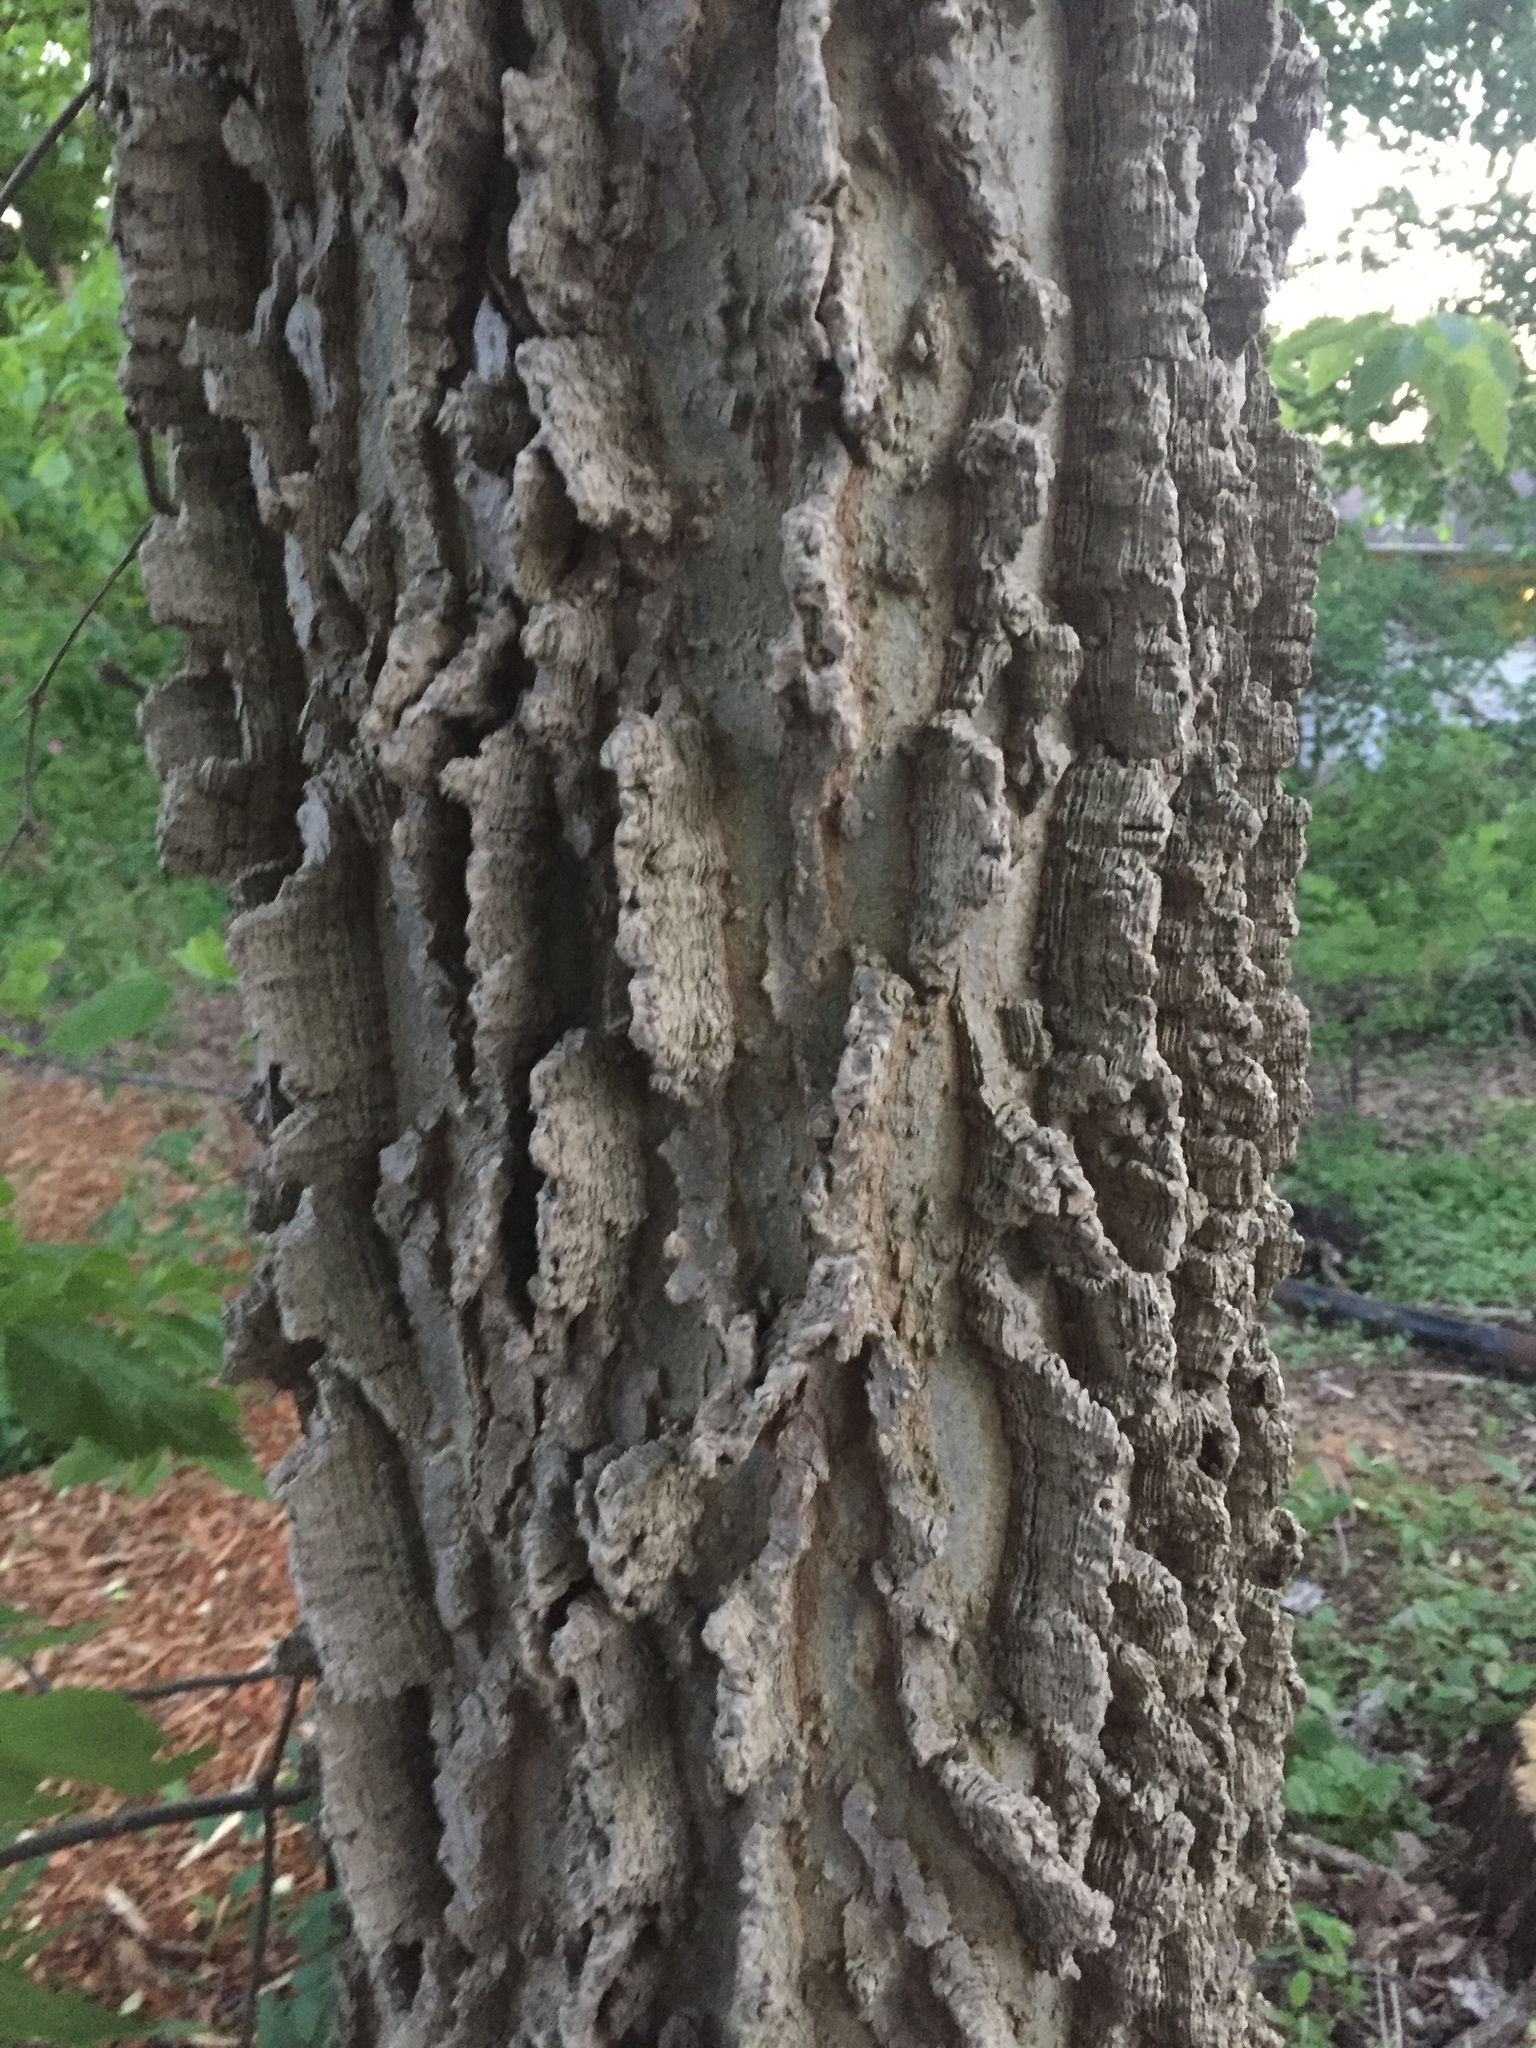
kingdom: Plantae
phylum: Tracheophyta
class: Magnoliopsida
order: Rosales
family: Cannabaceae
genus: Celtis
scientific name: Celtis occidentalis
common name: Common hackberry
